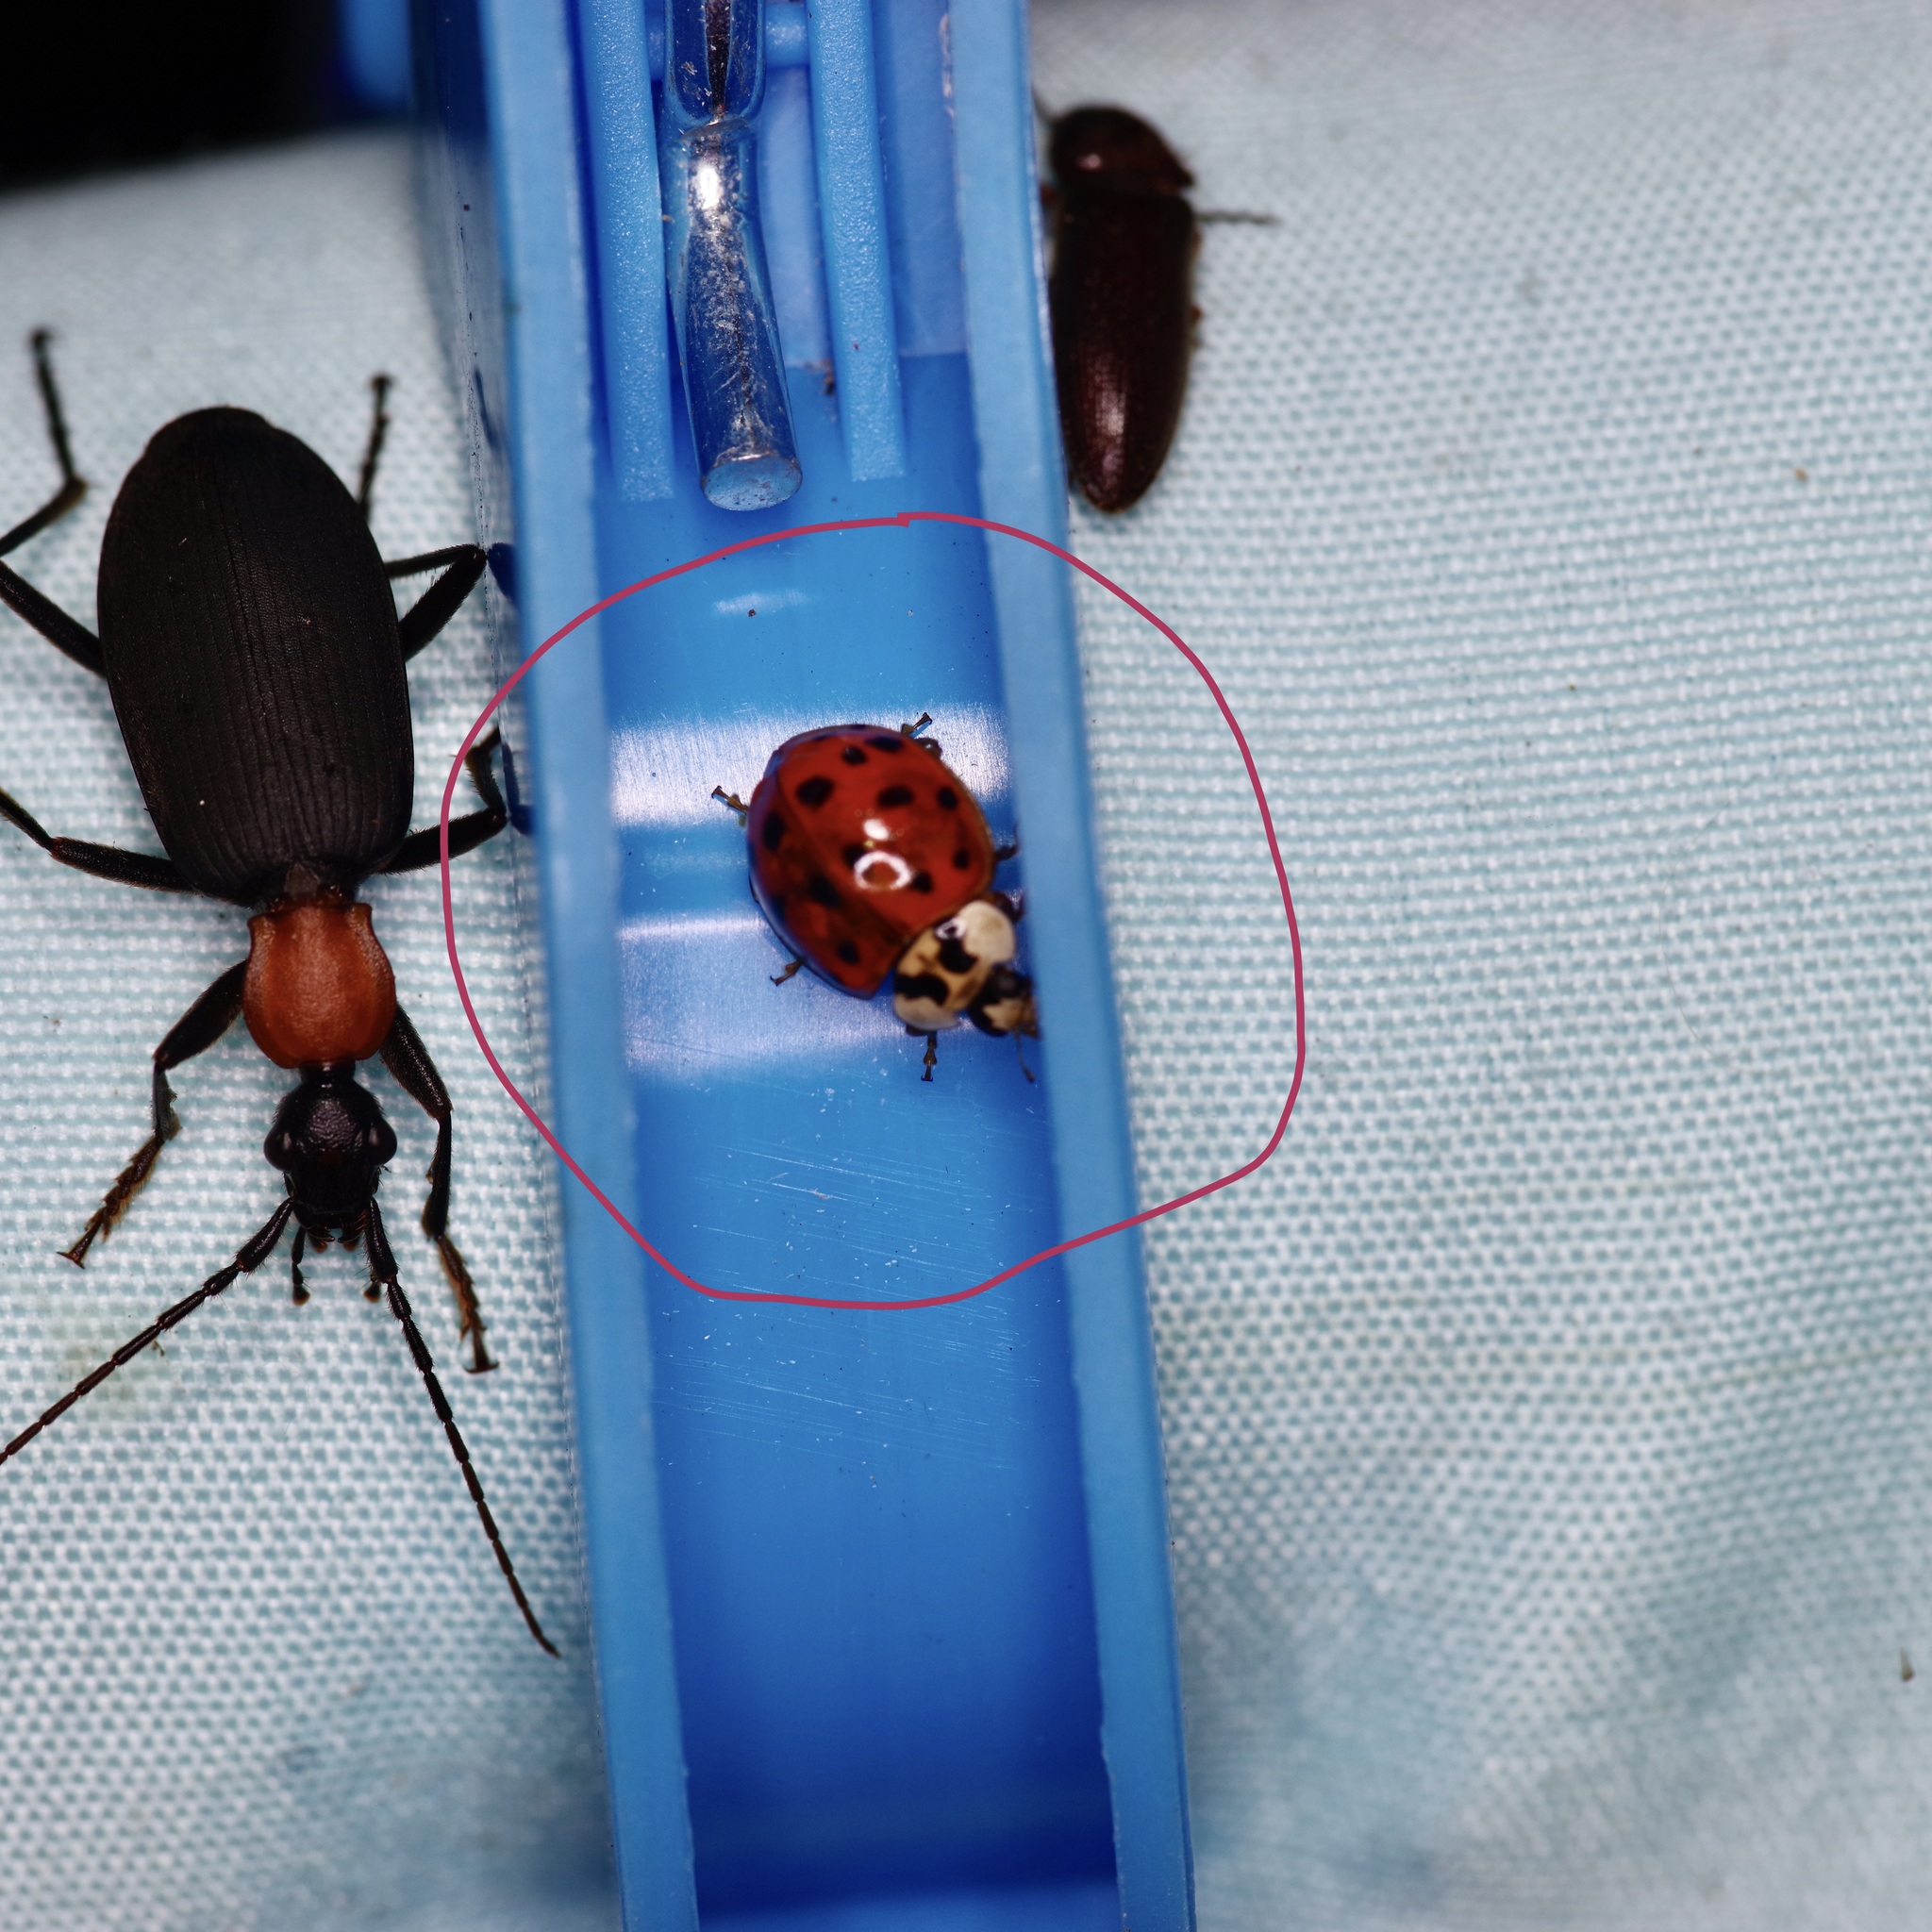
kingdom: Animalia
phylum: Arthropoda
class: Insecta
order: Coleoptera
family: Coccinellidae
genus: Harmonia
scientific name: Harmonia axyridis
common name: Harlequin ladybird
